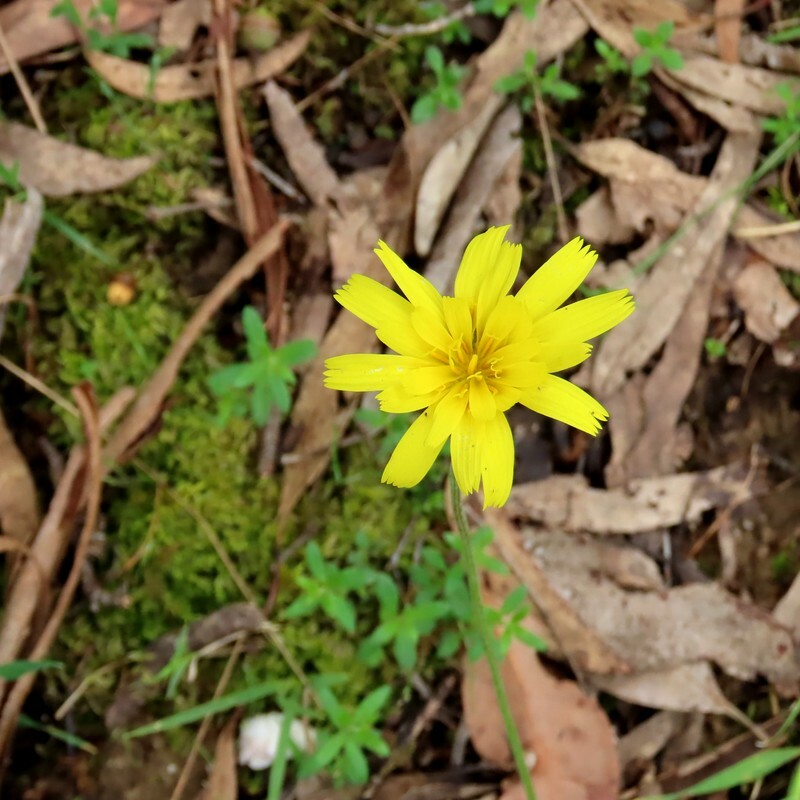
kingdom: Plantae
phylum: Tracheophyta
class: Magnoliopsida
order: Asterales
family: Asteraceae
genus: Microseris
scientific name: Microseris lanceolata
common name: Yam daisy
